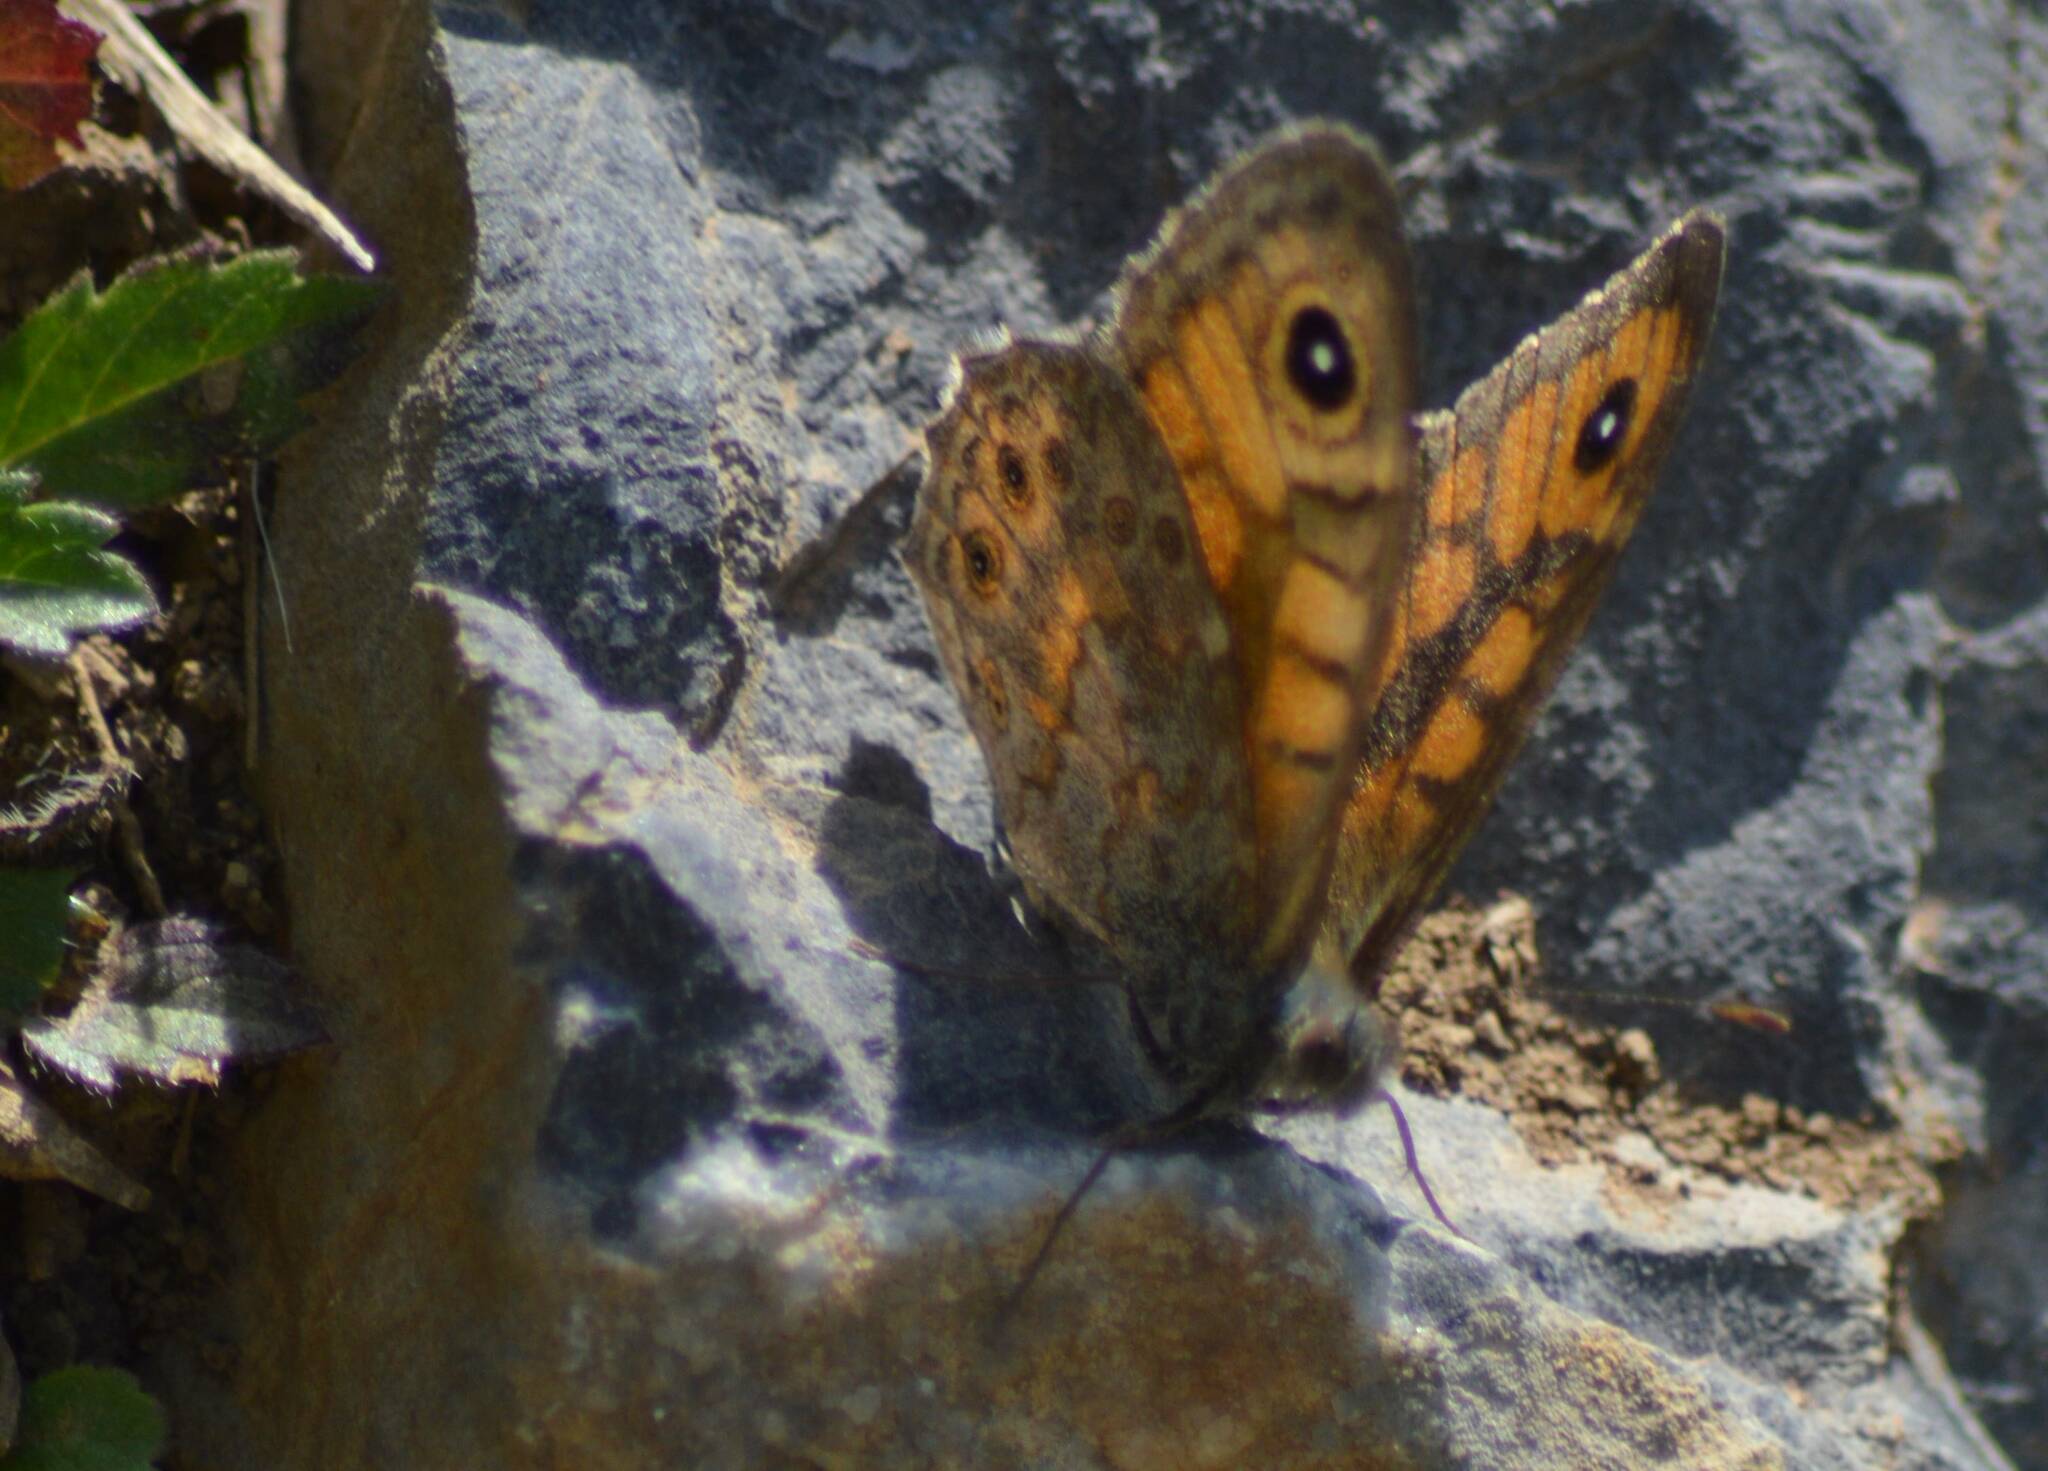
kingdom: Animalia
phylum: Arthropoda
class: Insecta
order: Lepidoptera
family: Nymphalidae
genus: Pararge
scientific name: Pararge Lasiommata megera
